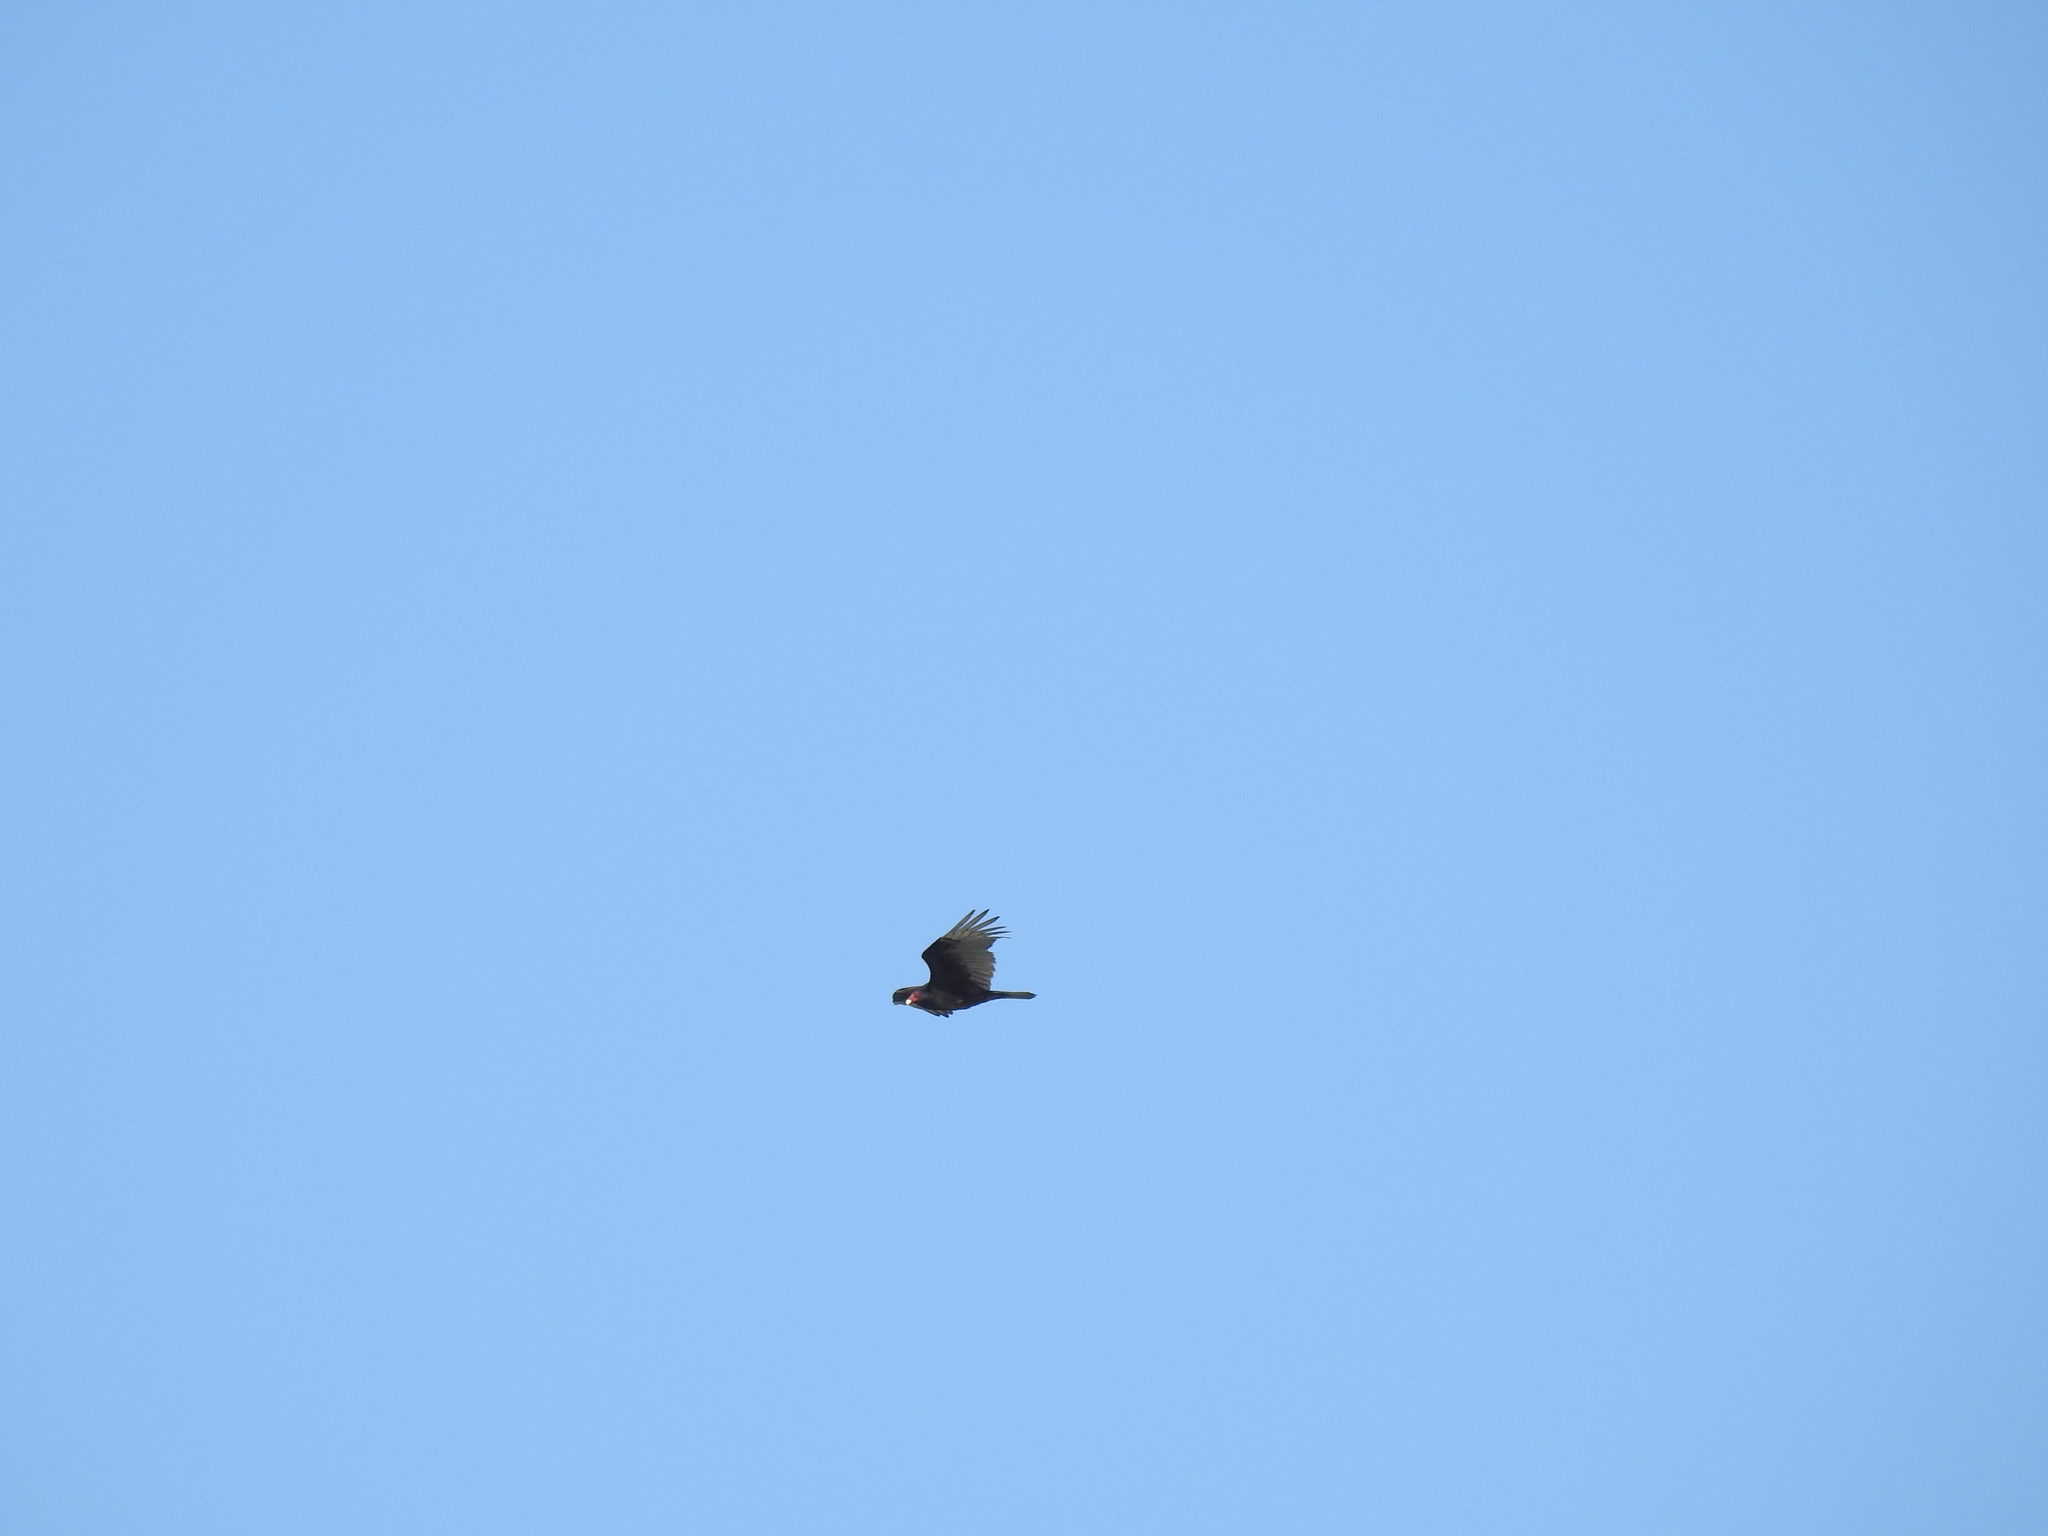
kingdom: Animalia
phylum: Chordata
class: Aves
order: Accipitriformes
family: Cathartidae
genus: Cathartes
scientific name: Cathartes aura
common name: Turkey vulture
